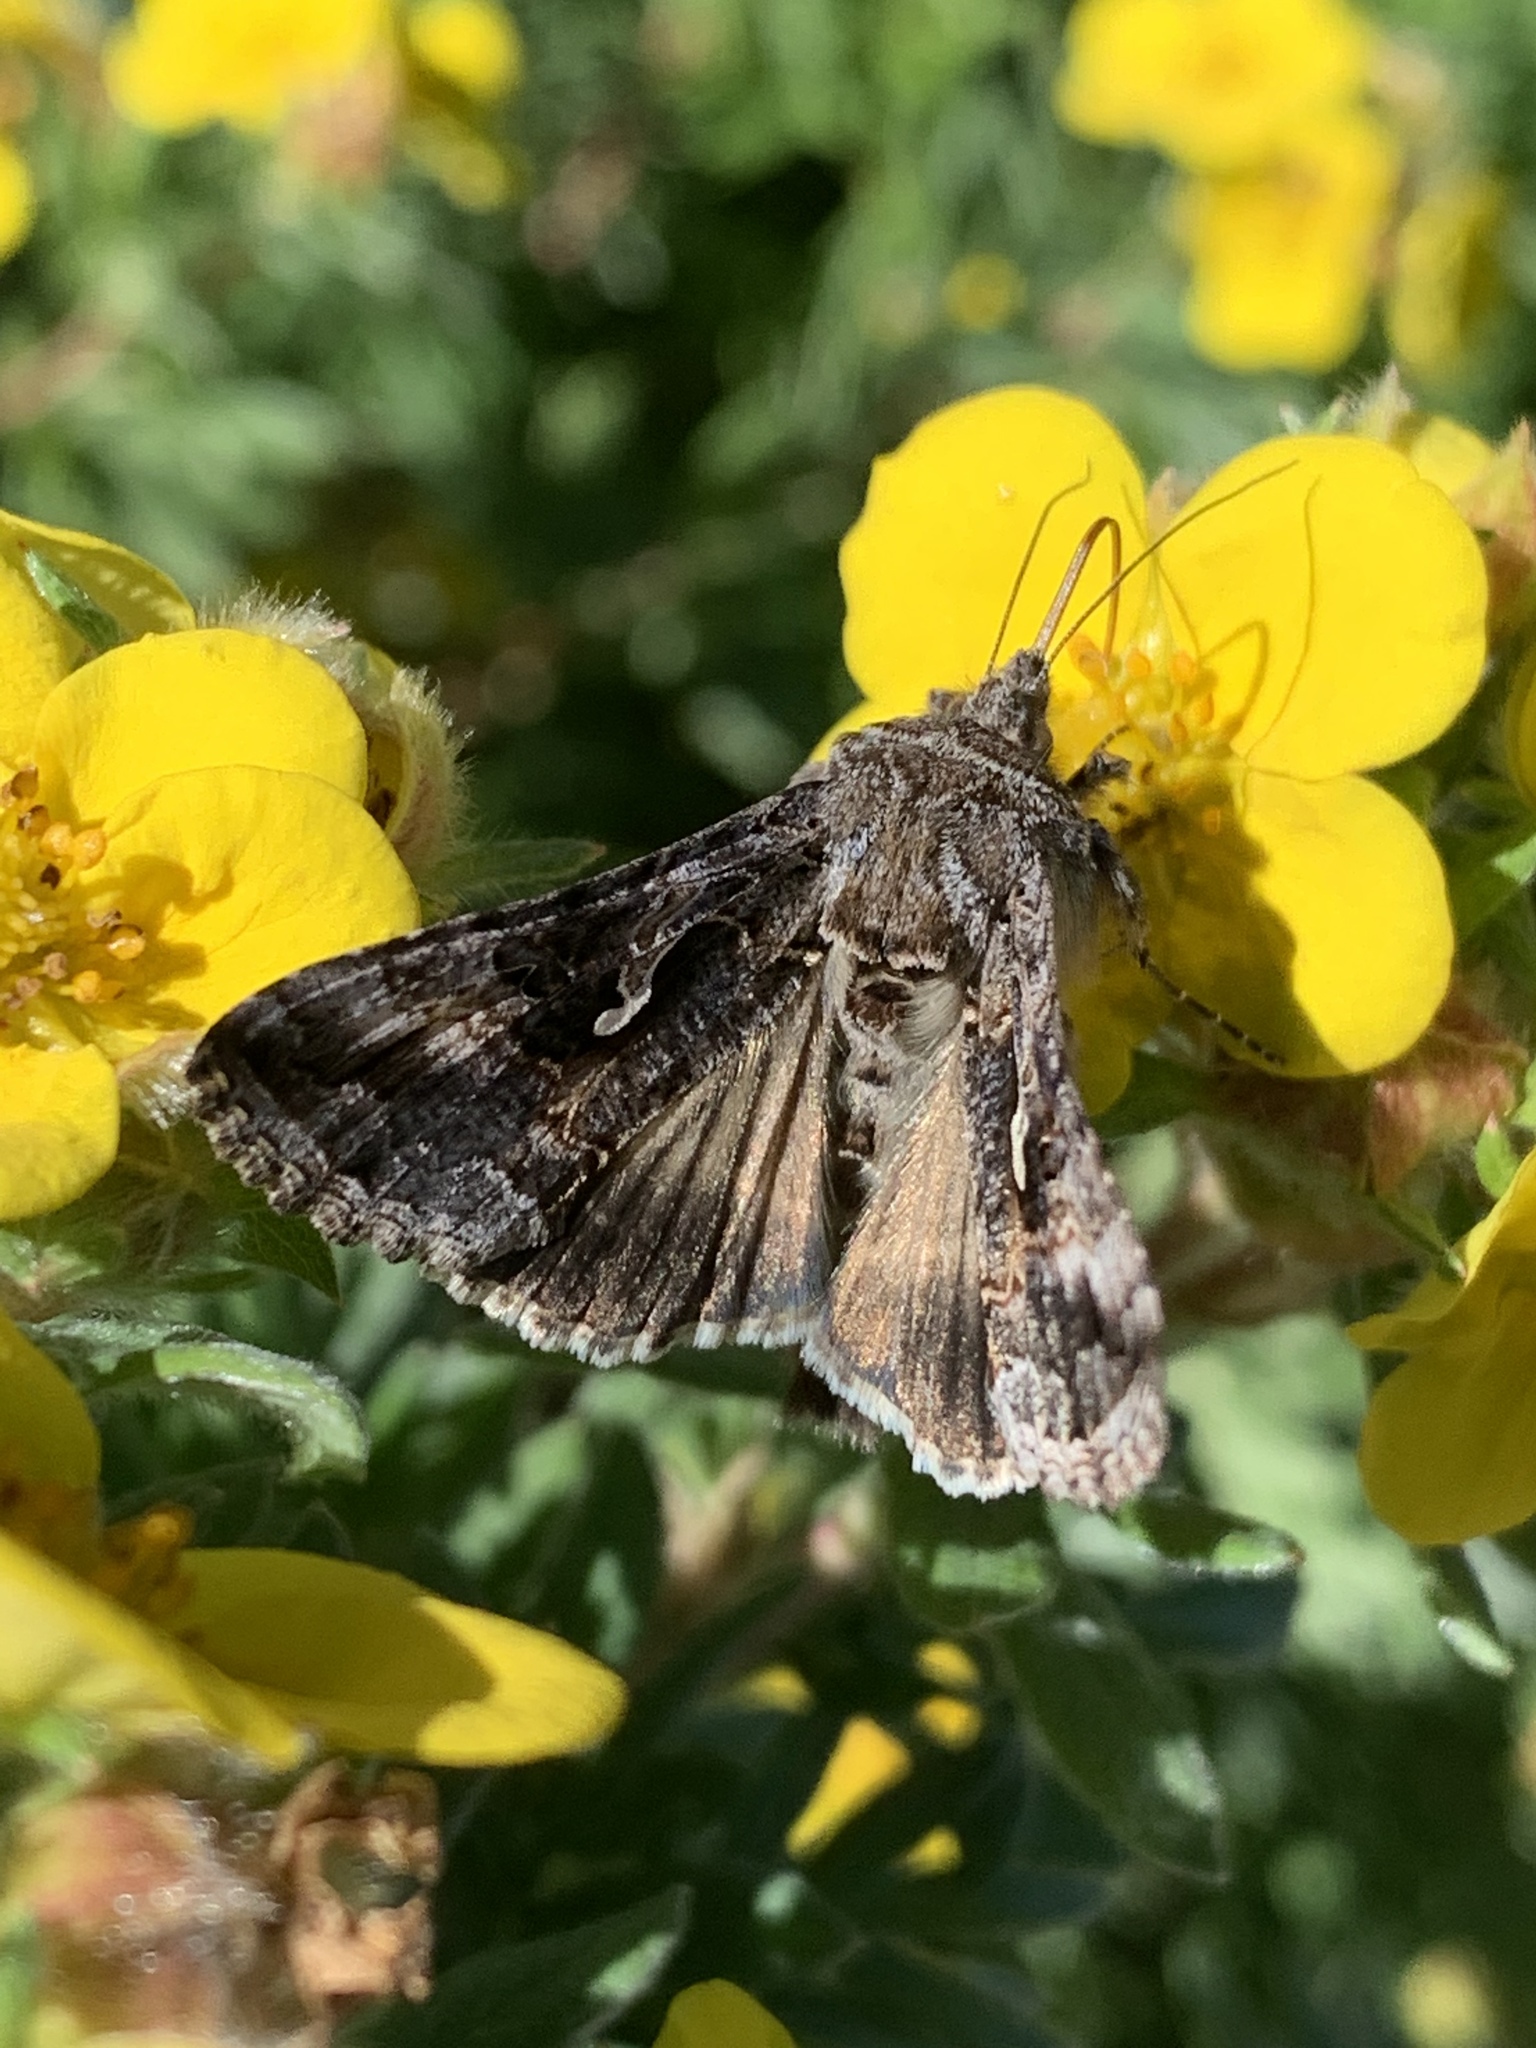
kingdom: Animalia
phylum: Arthropoda
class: Insecta
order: Lepidoptera
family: Noctuidae
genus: Autographa
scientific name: Autographa californica
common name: Alfalfa looper
